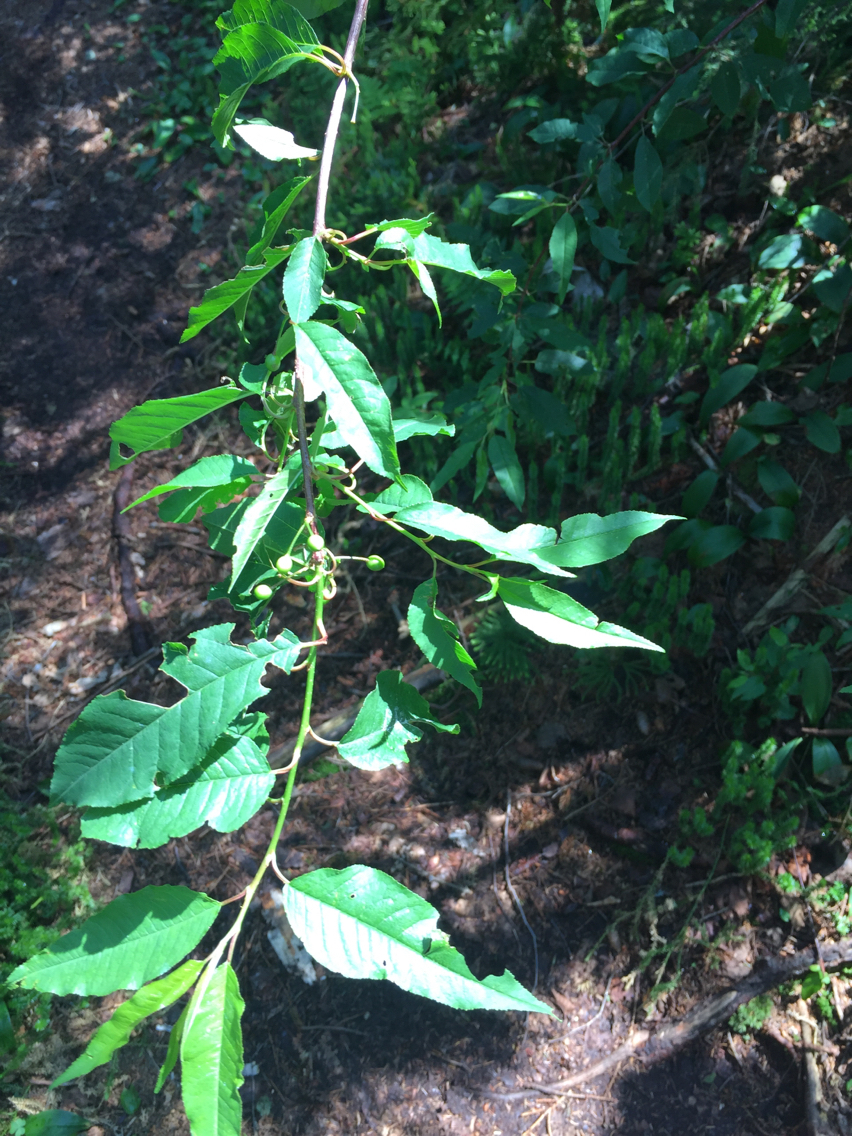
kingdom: Plantae
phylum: Tracheophyta
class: Magnoliopsida
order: Rosales
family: Rosaceae
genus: Prunus
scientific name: Prunus serotina
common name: Black cherry
